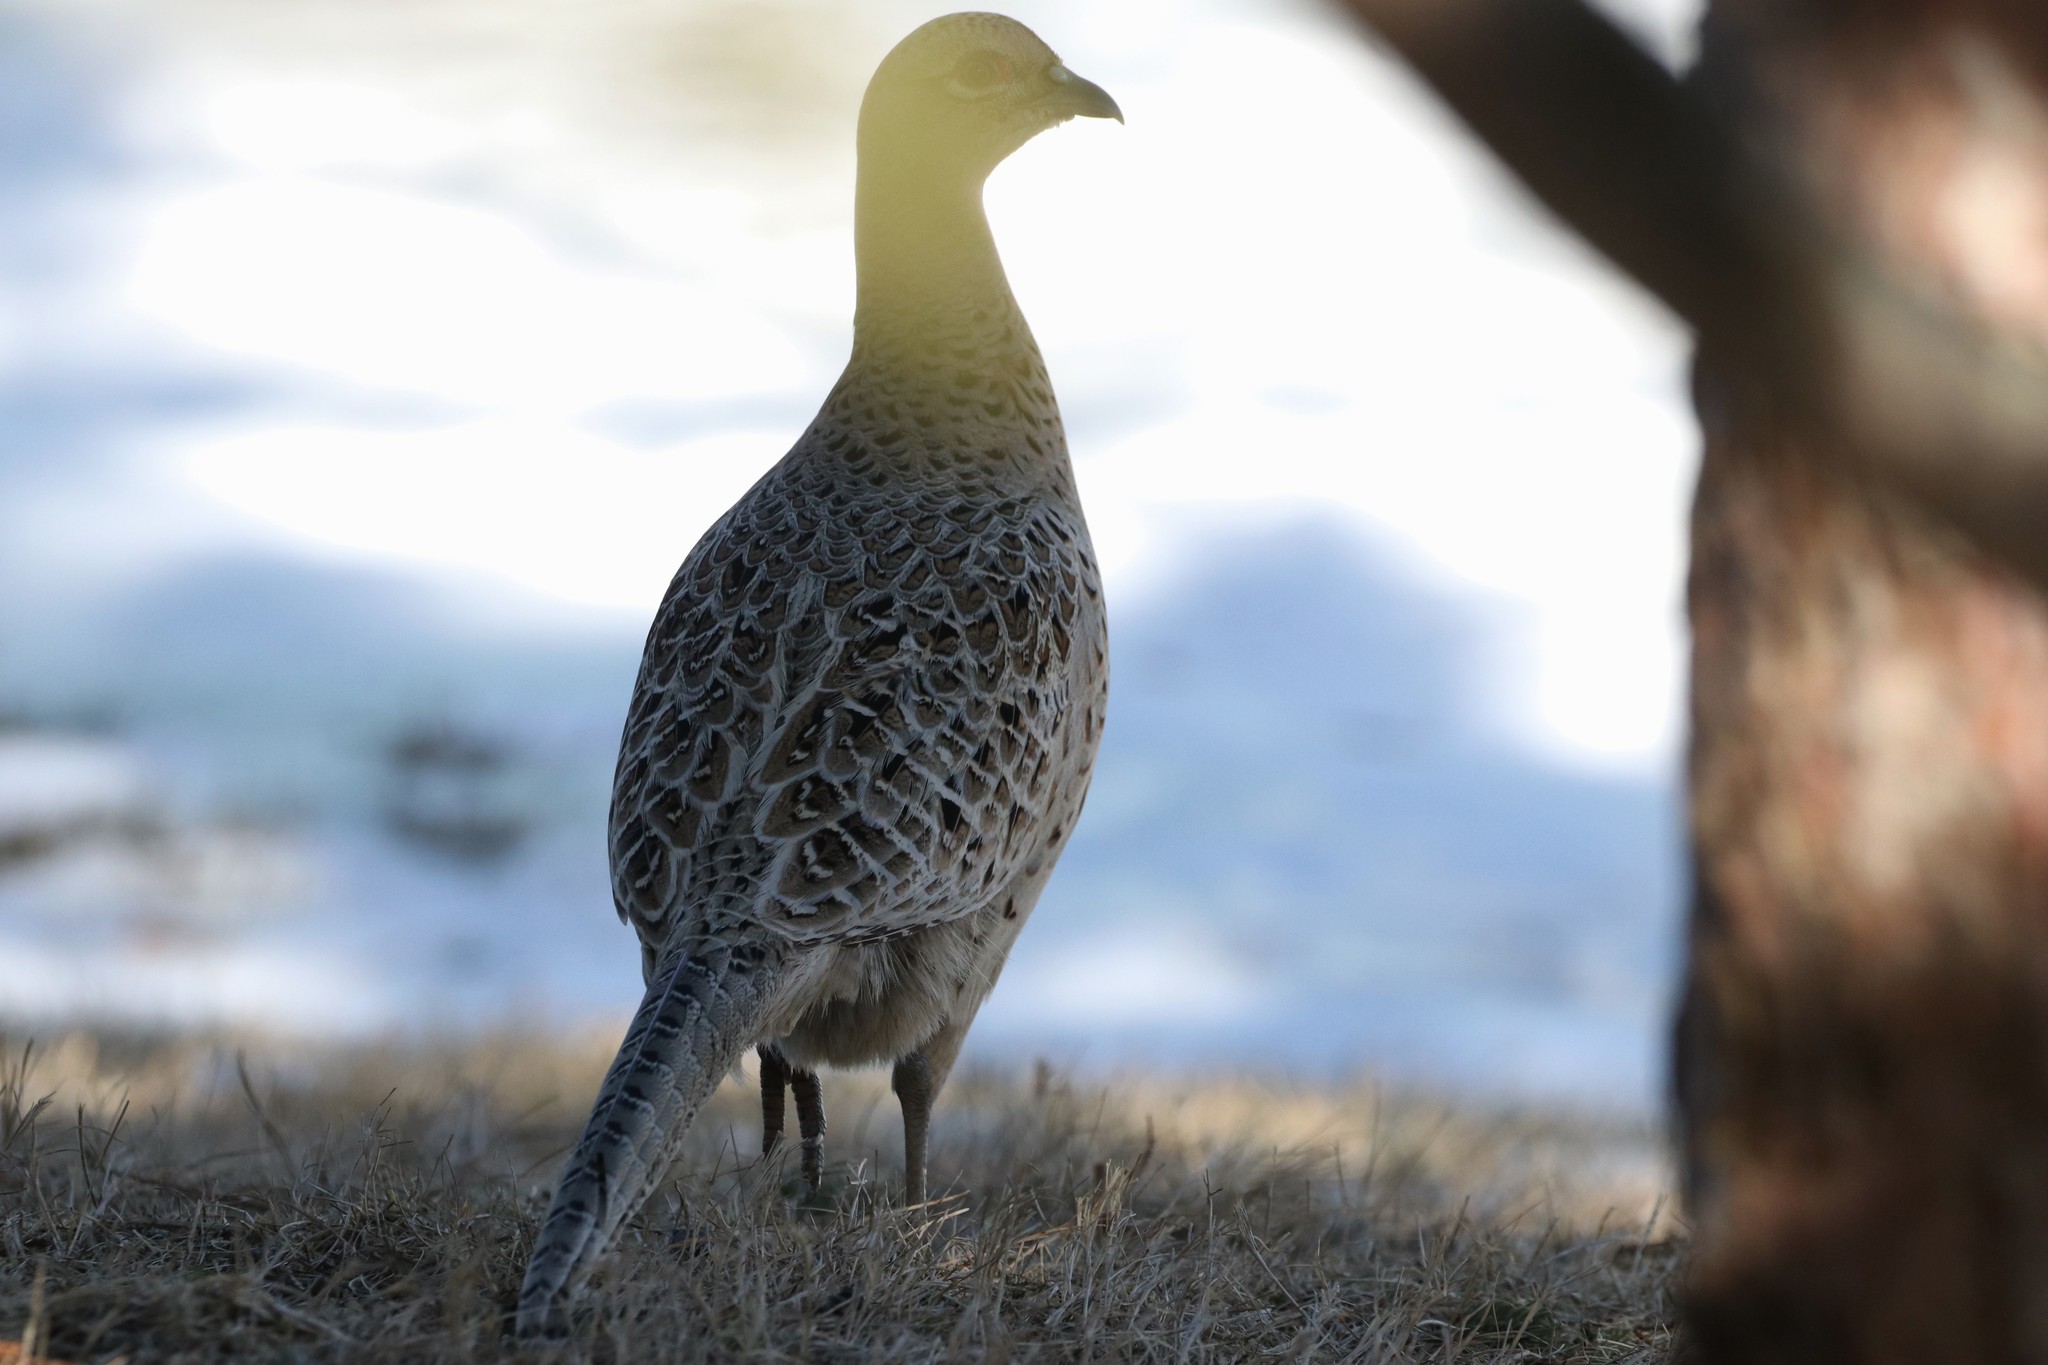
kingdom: Animalia
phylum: Chordata
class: Aves
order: Galliformes
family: Phasianidae
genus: Phasianus
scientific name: Phasianus colchicus
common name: Common pheasant
